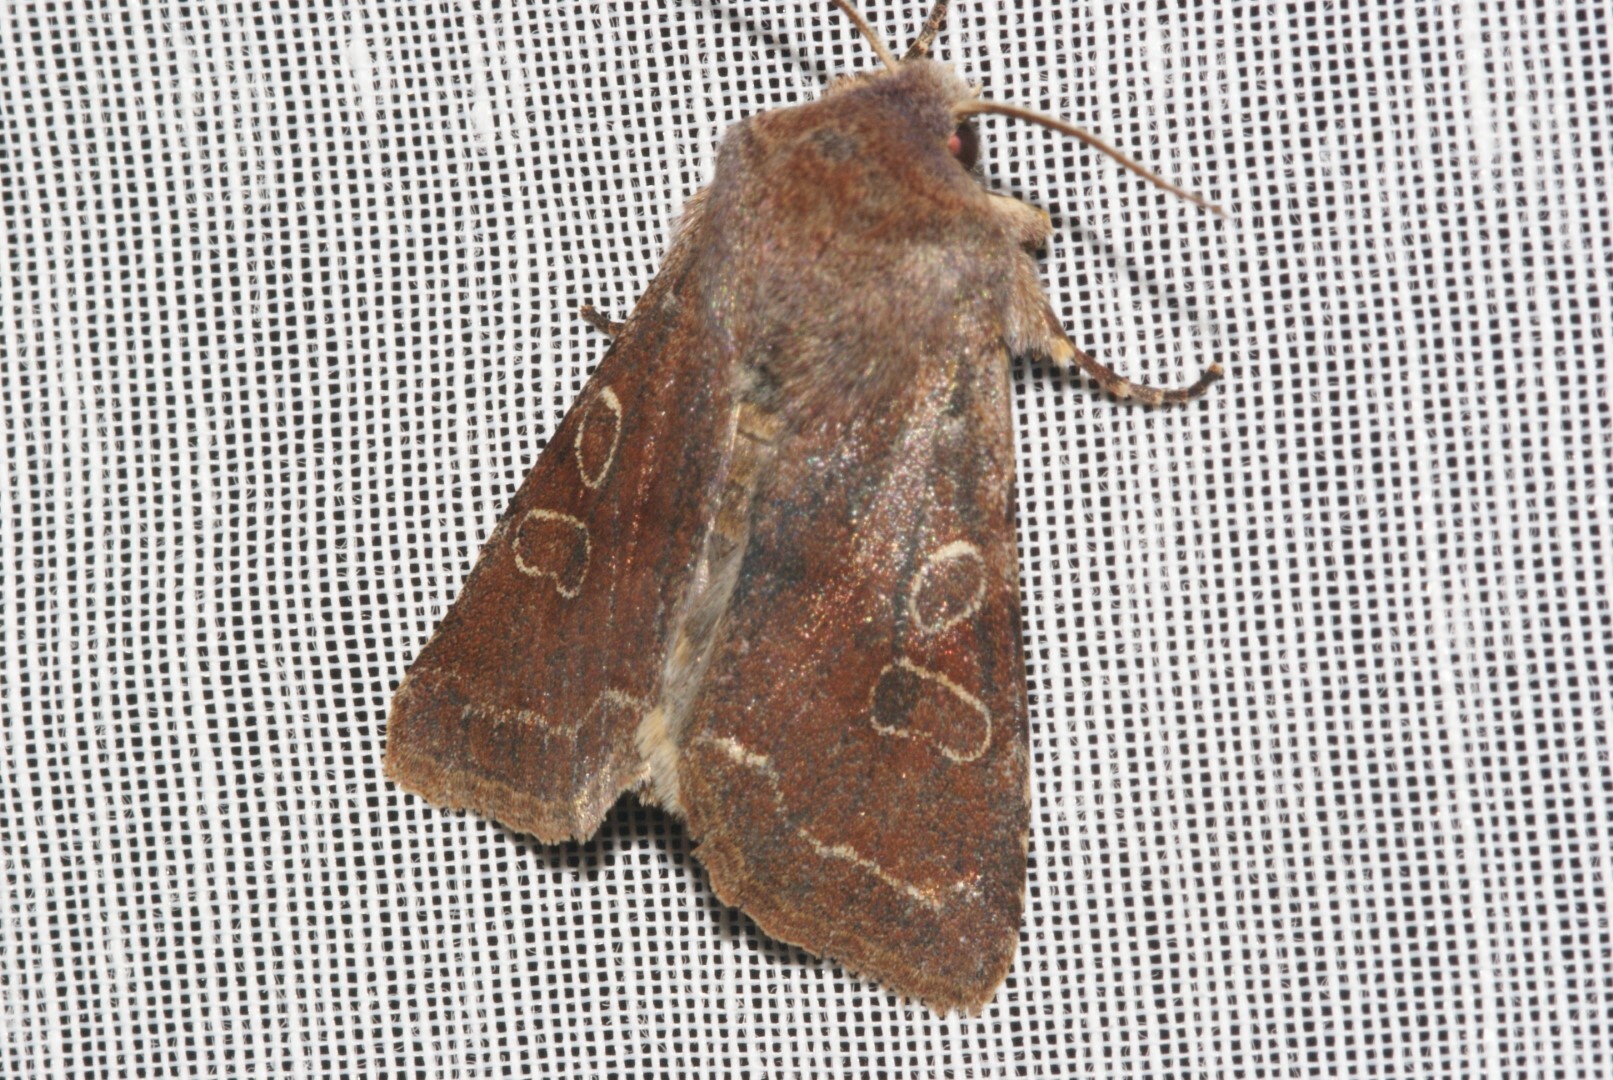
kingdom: Animalia
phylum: Arthropoda
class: Insecta
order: Lepidoptera
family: Noctuidae
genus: Orthosia
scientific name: Orthosia incerta
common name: Clouded drab
